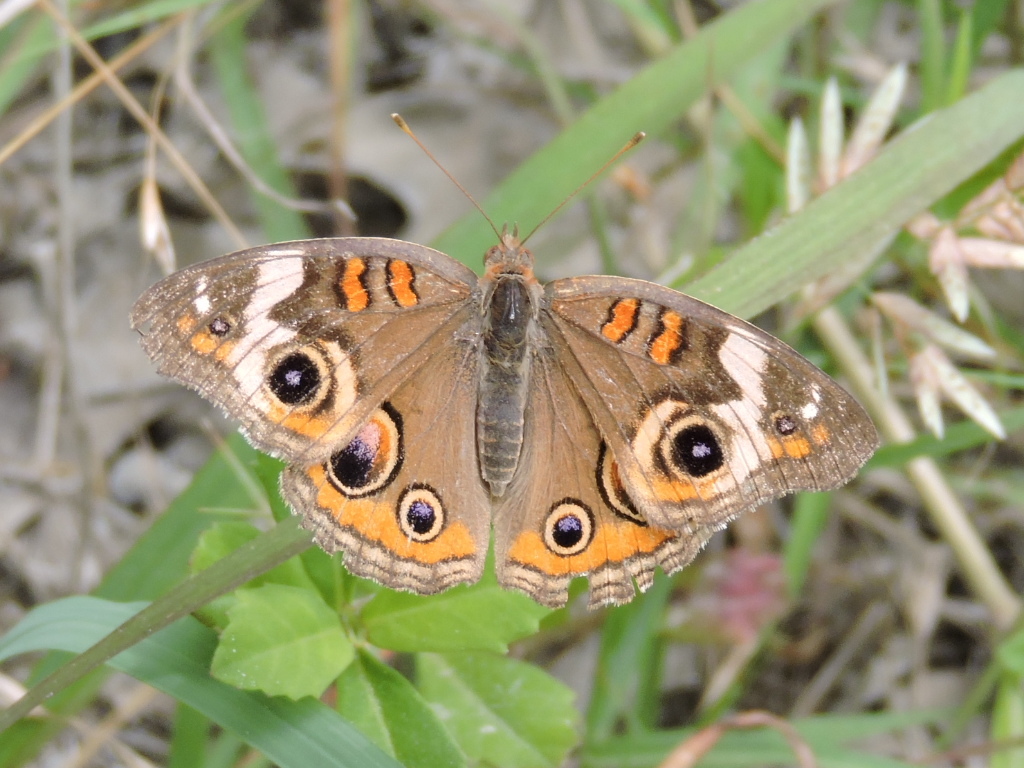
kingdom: Animalia
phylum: Arthropoda
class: Insecta
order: Lepidoptera
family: Nymphalidae
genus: Junonia
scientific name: Junonia coenia
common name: Common buckeye
